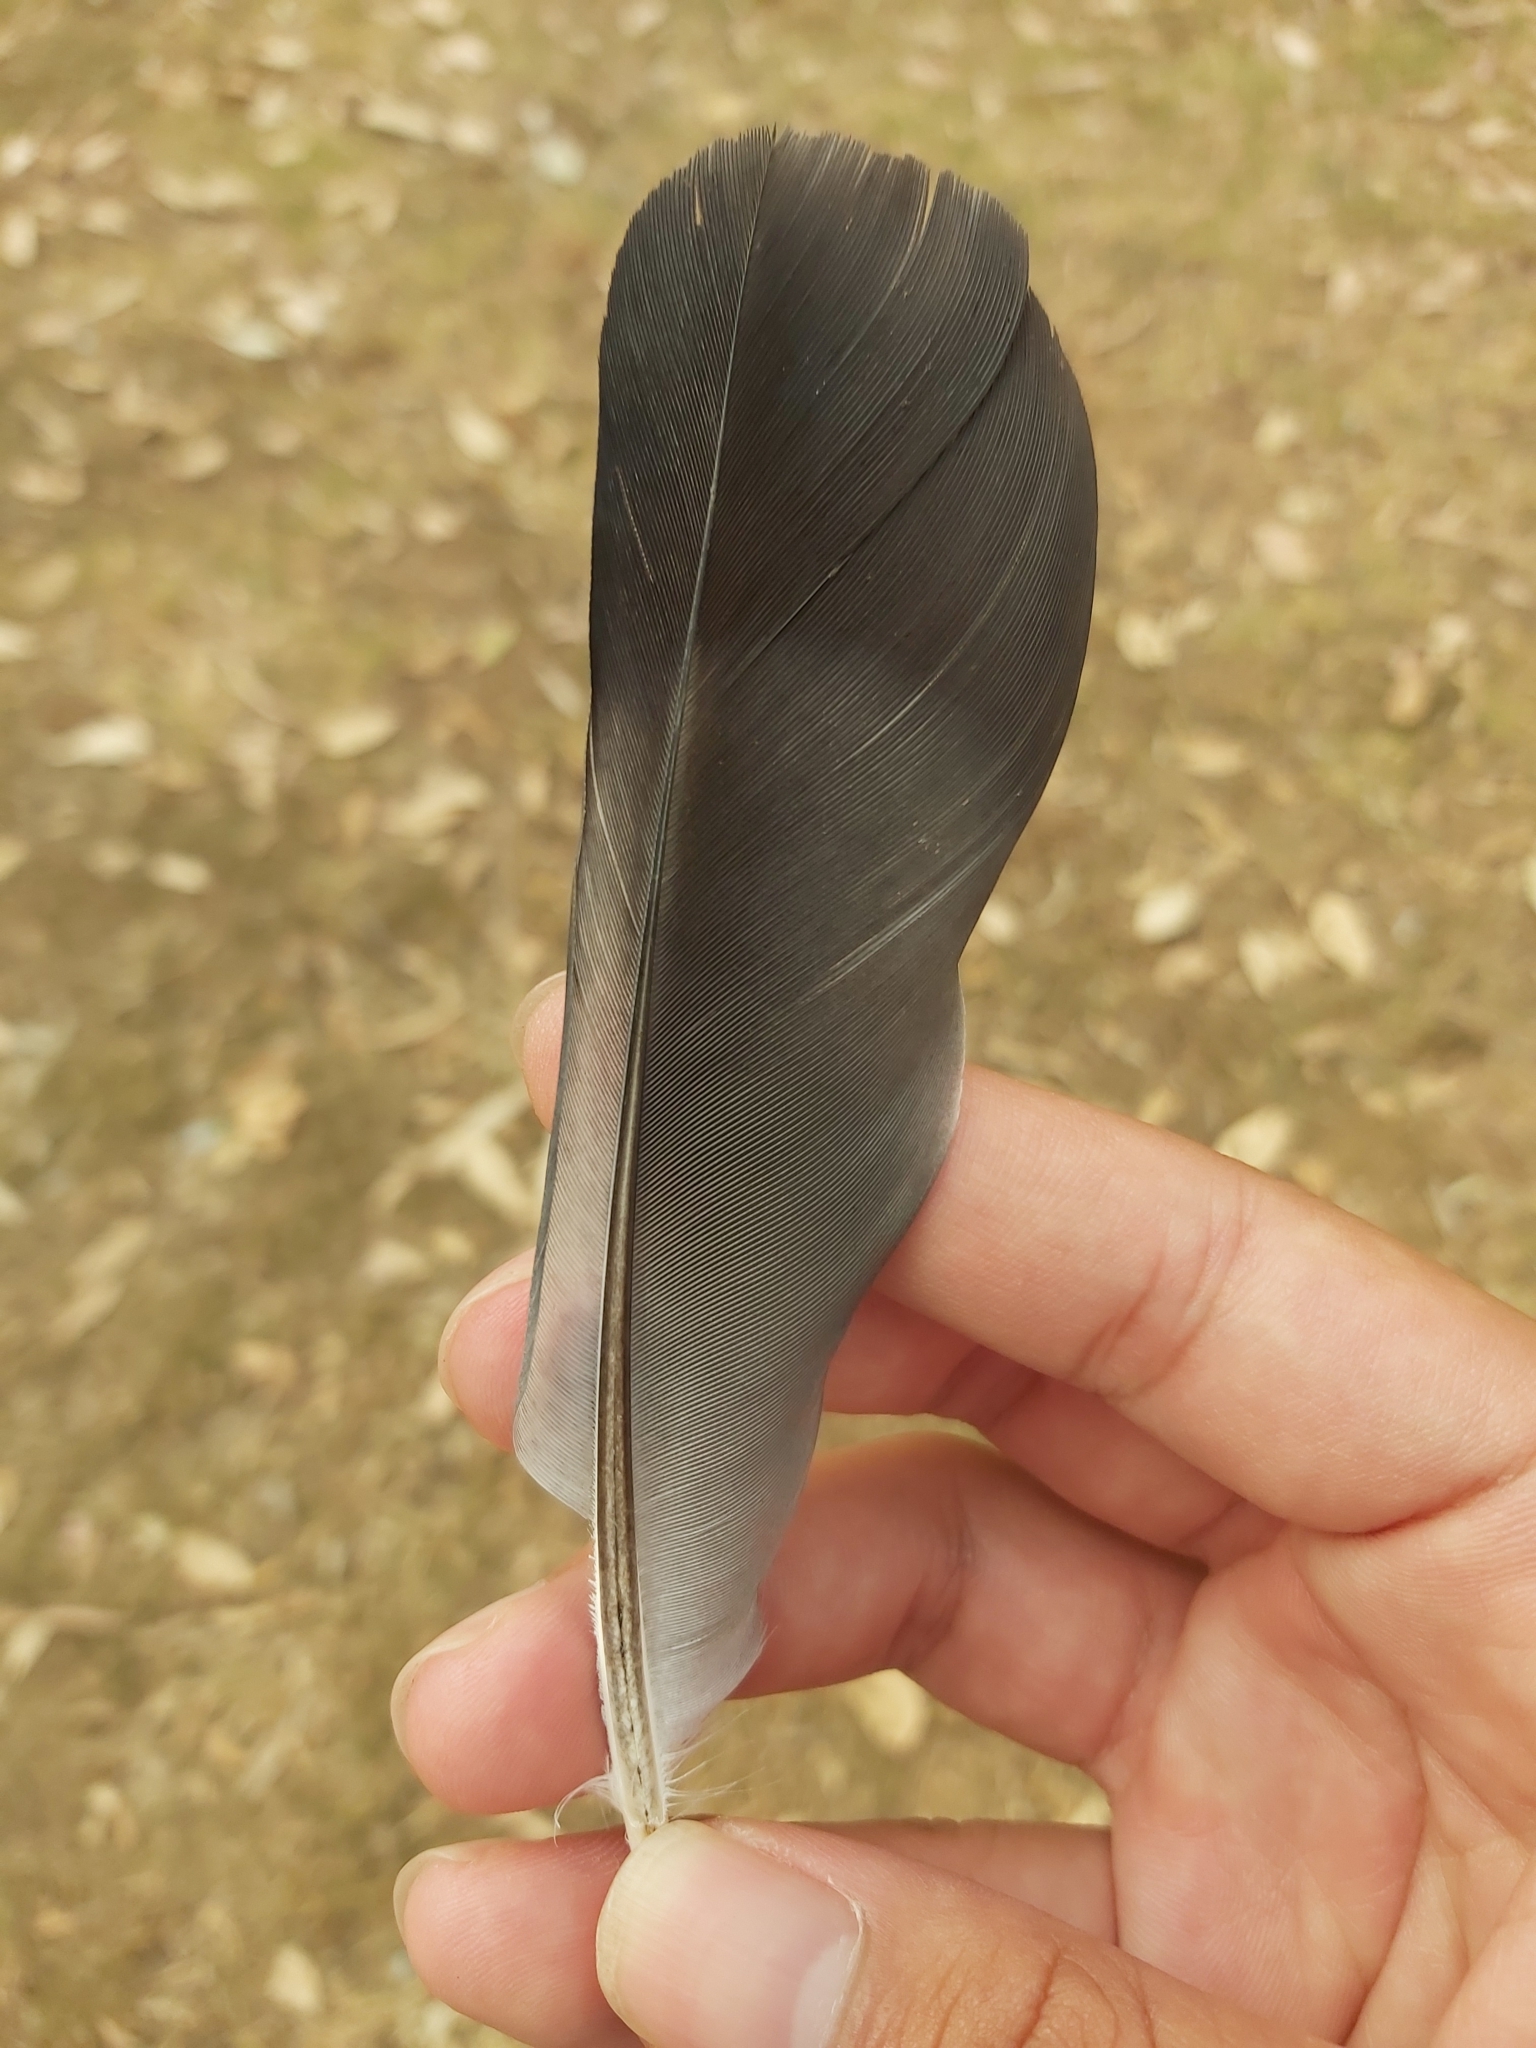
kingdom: Animalia
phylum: Chordata
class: Aves
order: Columbiformes
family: Columbidae
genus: Columba
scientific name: Columba livia
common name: Rock pigeon
